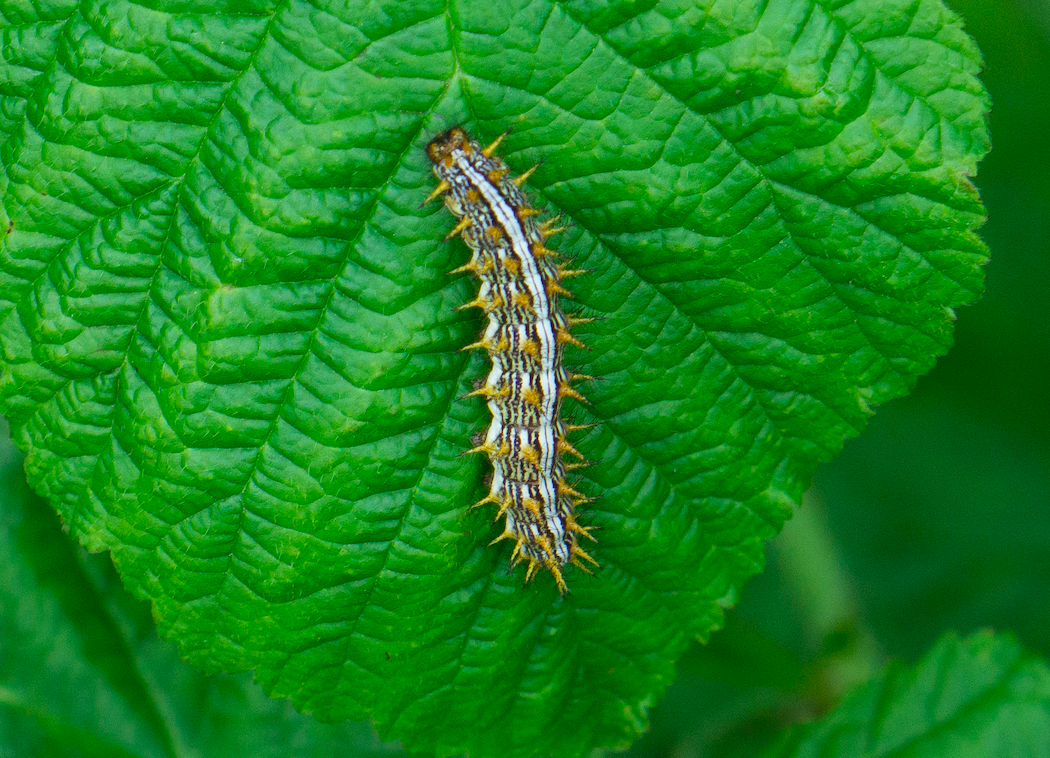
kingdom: Animalia
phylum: Arthropoda
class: Insecta
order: Lepidoptera
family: Nymphalidae
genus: Brenthis
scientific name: Brenthis daphne
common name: Marbled fritillary
